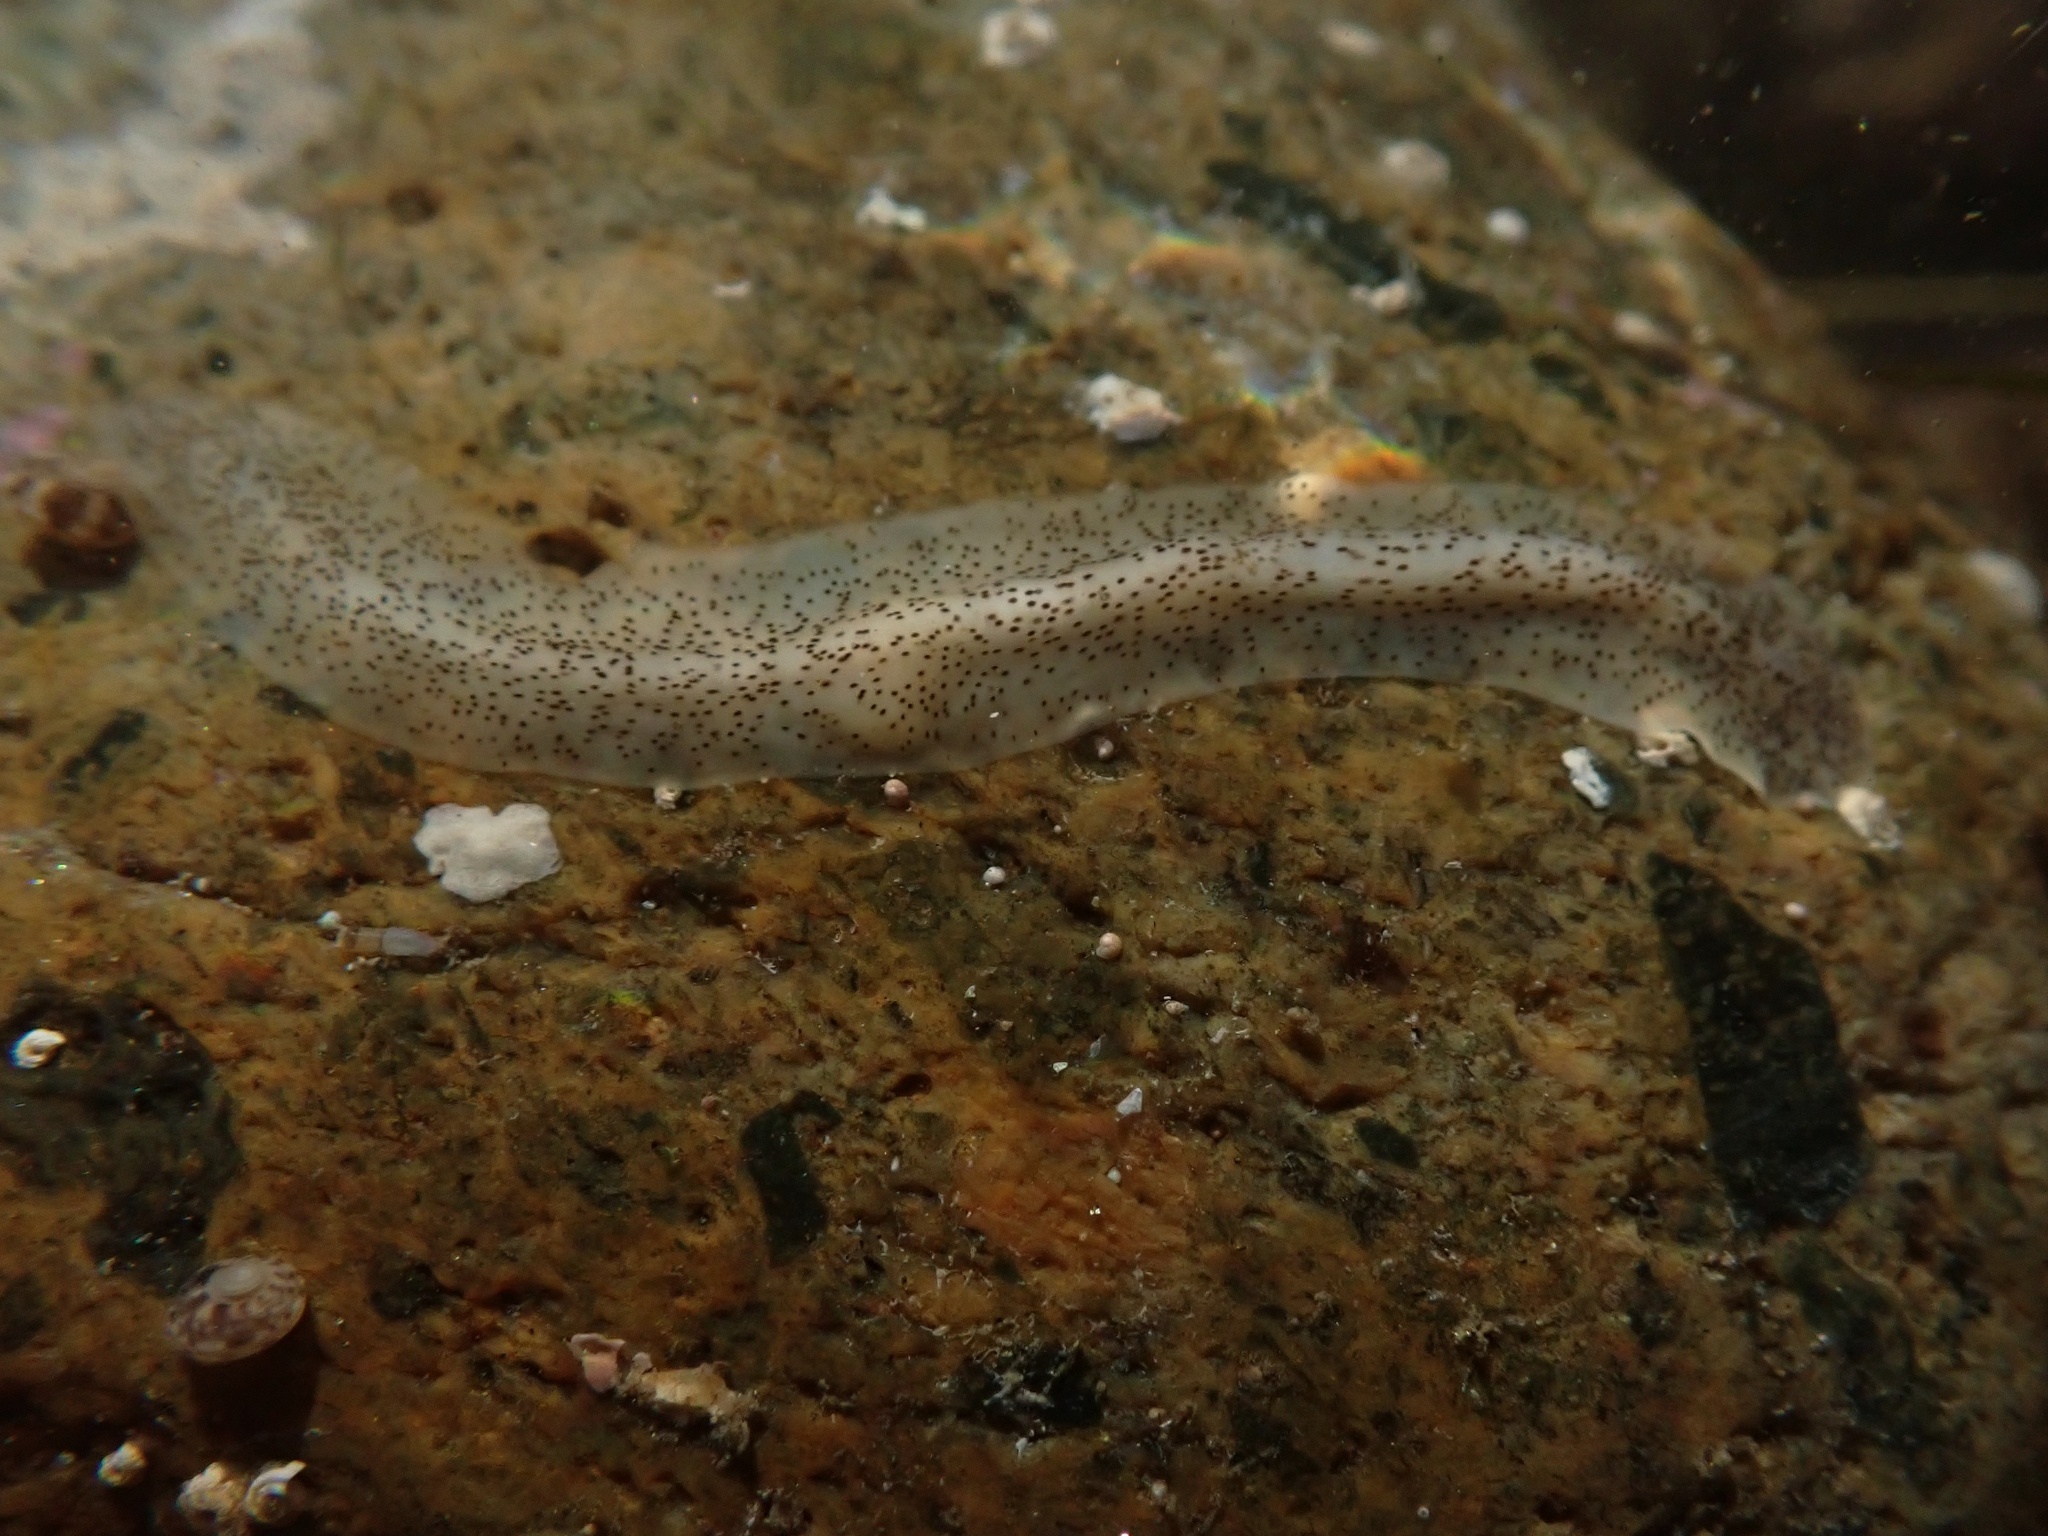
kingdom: Animalia
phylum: Platyhelminthes
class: Turbellaria
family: Prosthiostomidae
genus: Enchiridium
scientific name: Enchiridium punctatum
